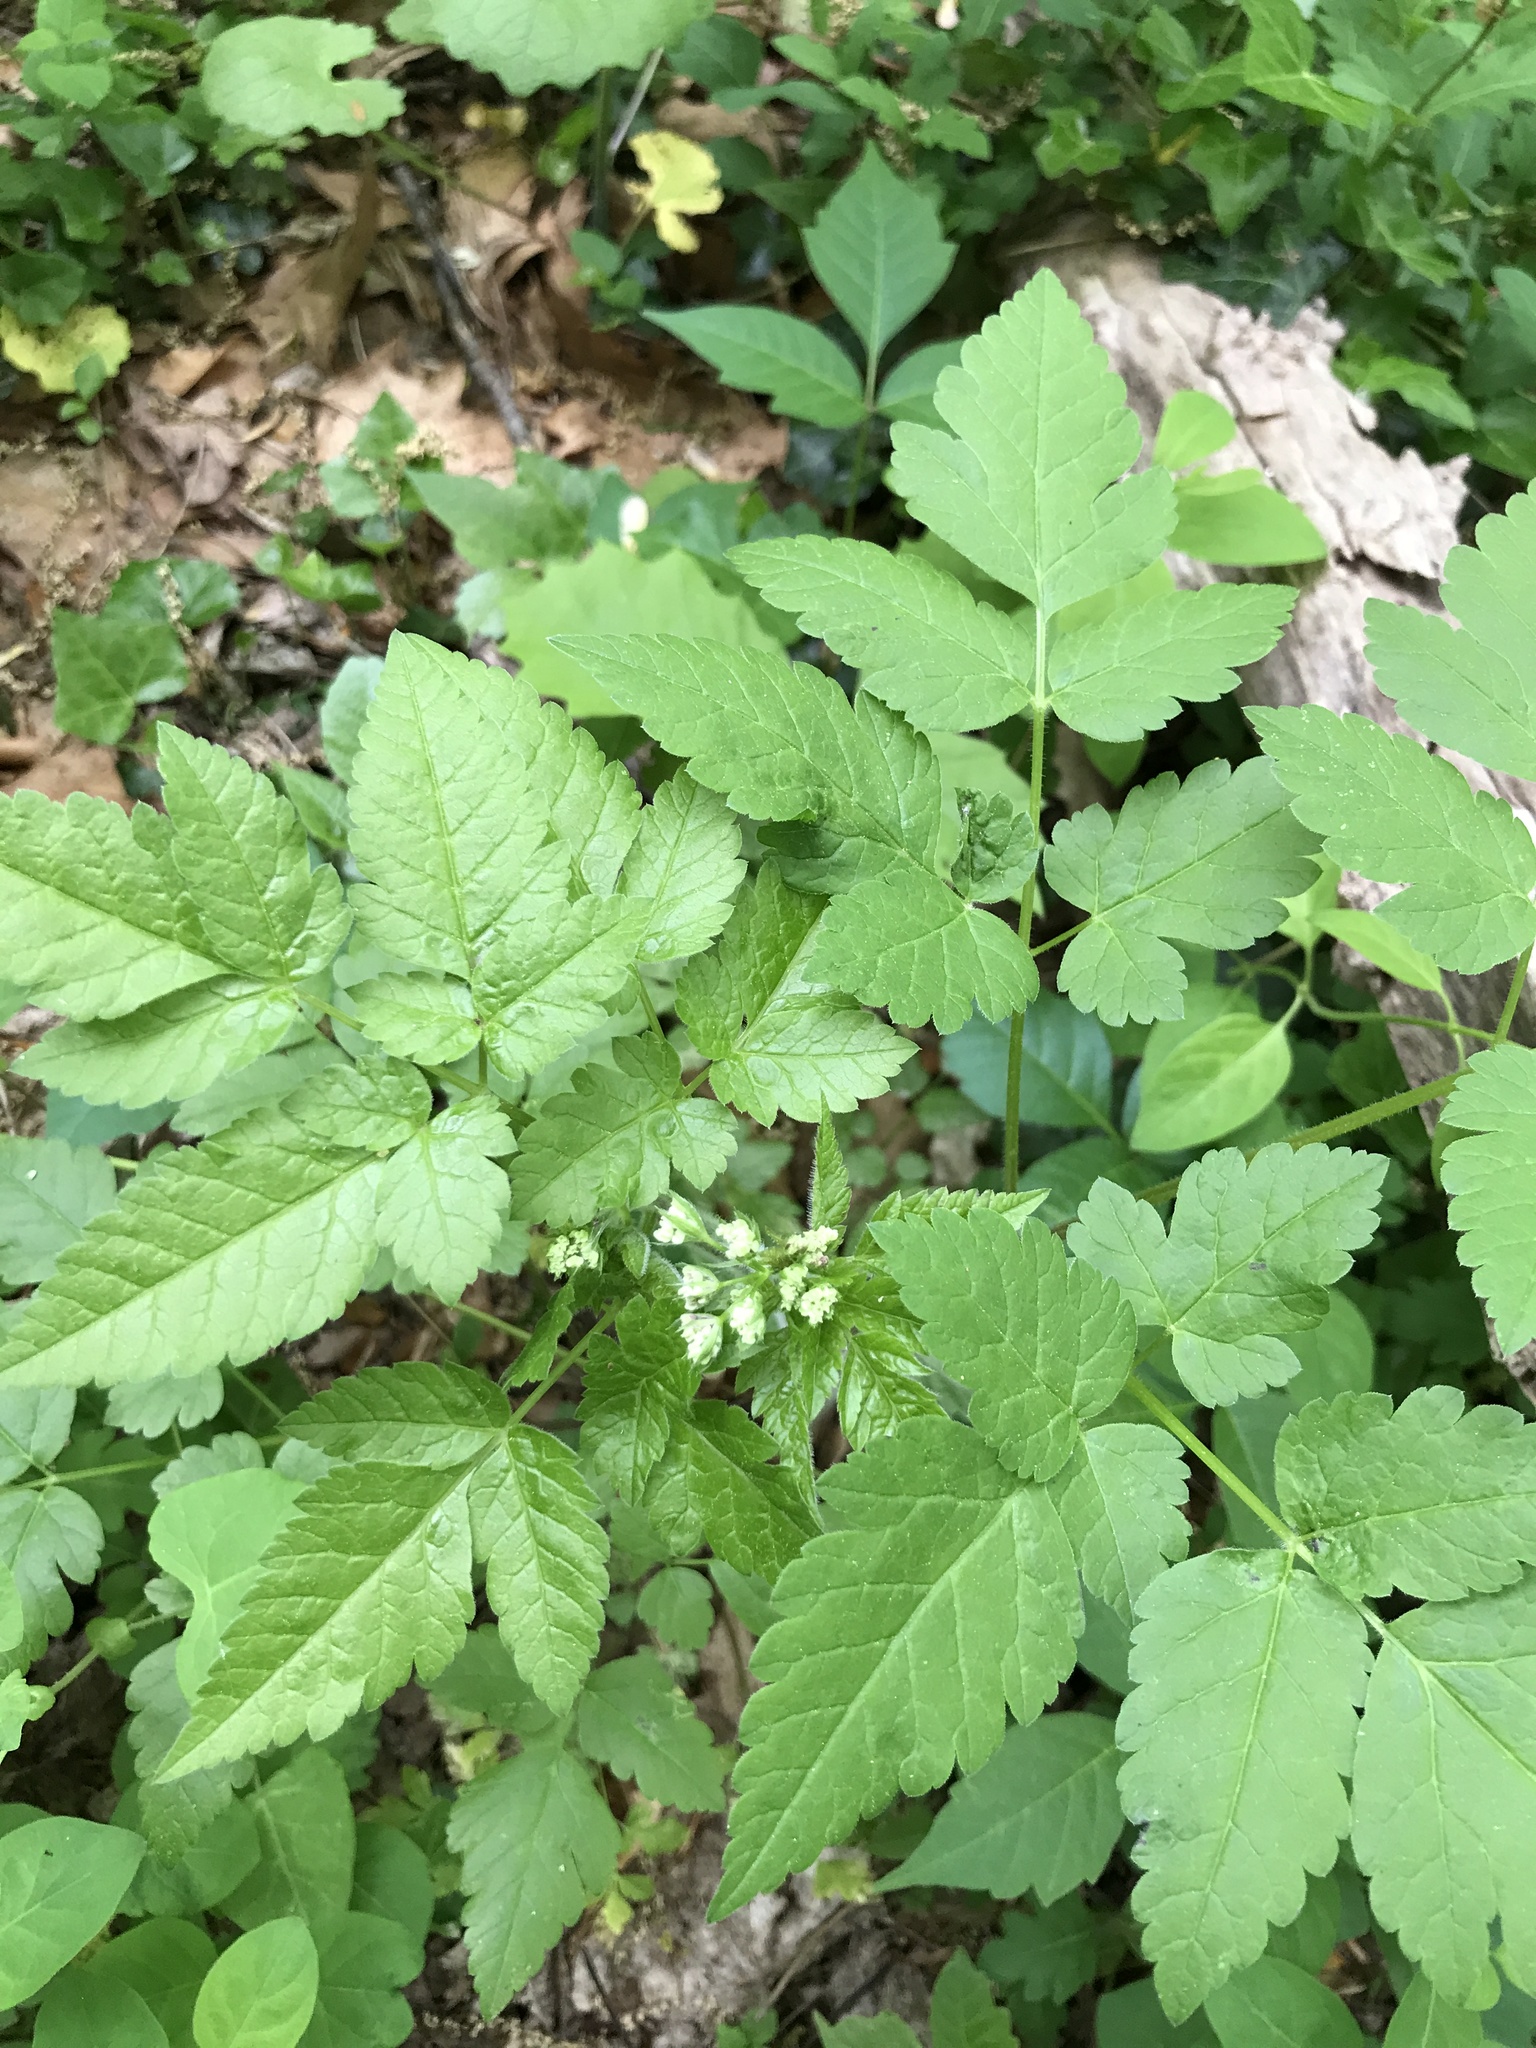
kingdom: Plantae
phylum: Tracheophyta
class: Magnoliopsida
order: Apiales
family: Apiaceae
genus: Osmorhiza
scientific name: Osmorhiza longistylis
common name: Smooth sweet cicely
